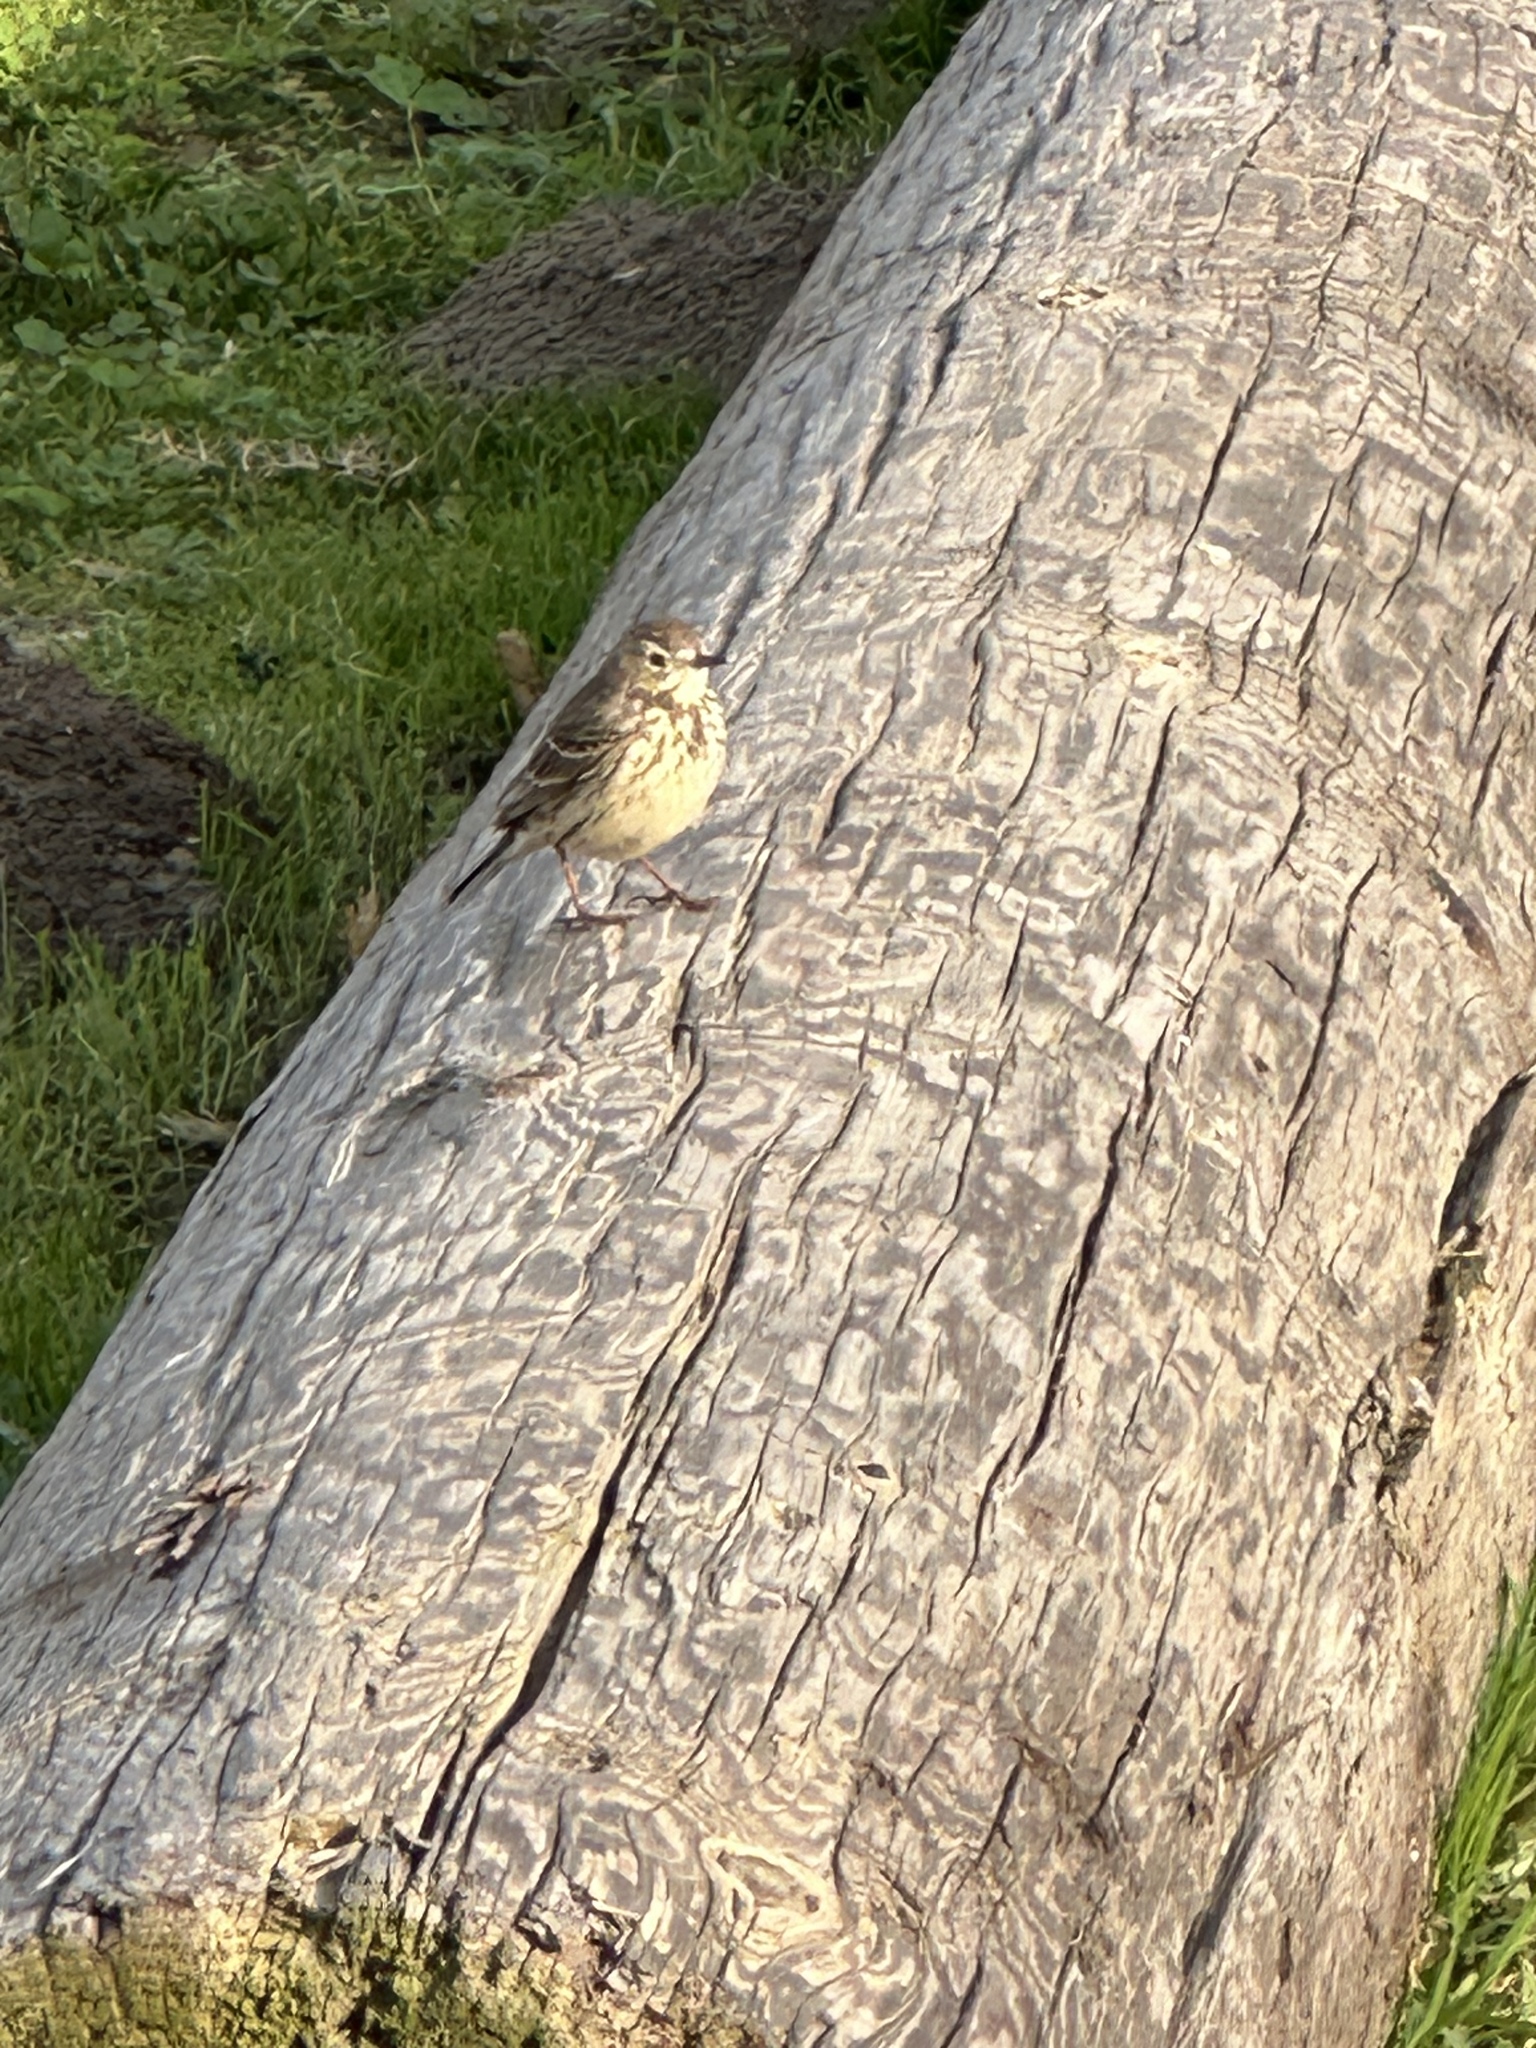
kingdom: Animalia
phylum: Chordata
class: Aves
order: Passeriformes
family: Motacillidae
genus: Anthus
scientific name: Anthus rubescens
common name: Buff-bellied pipit
